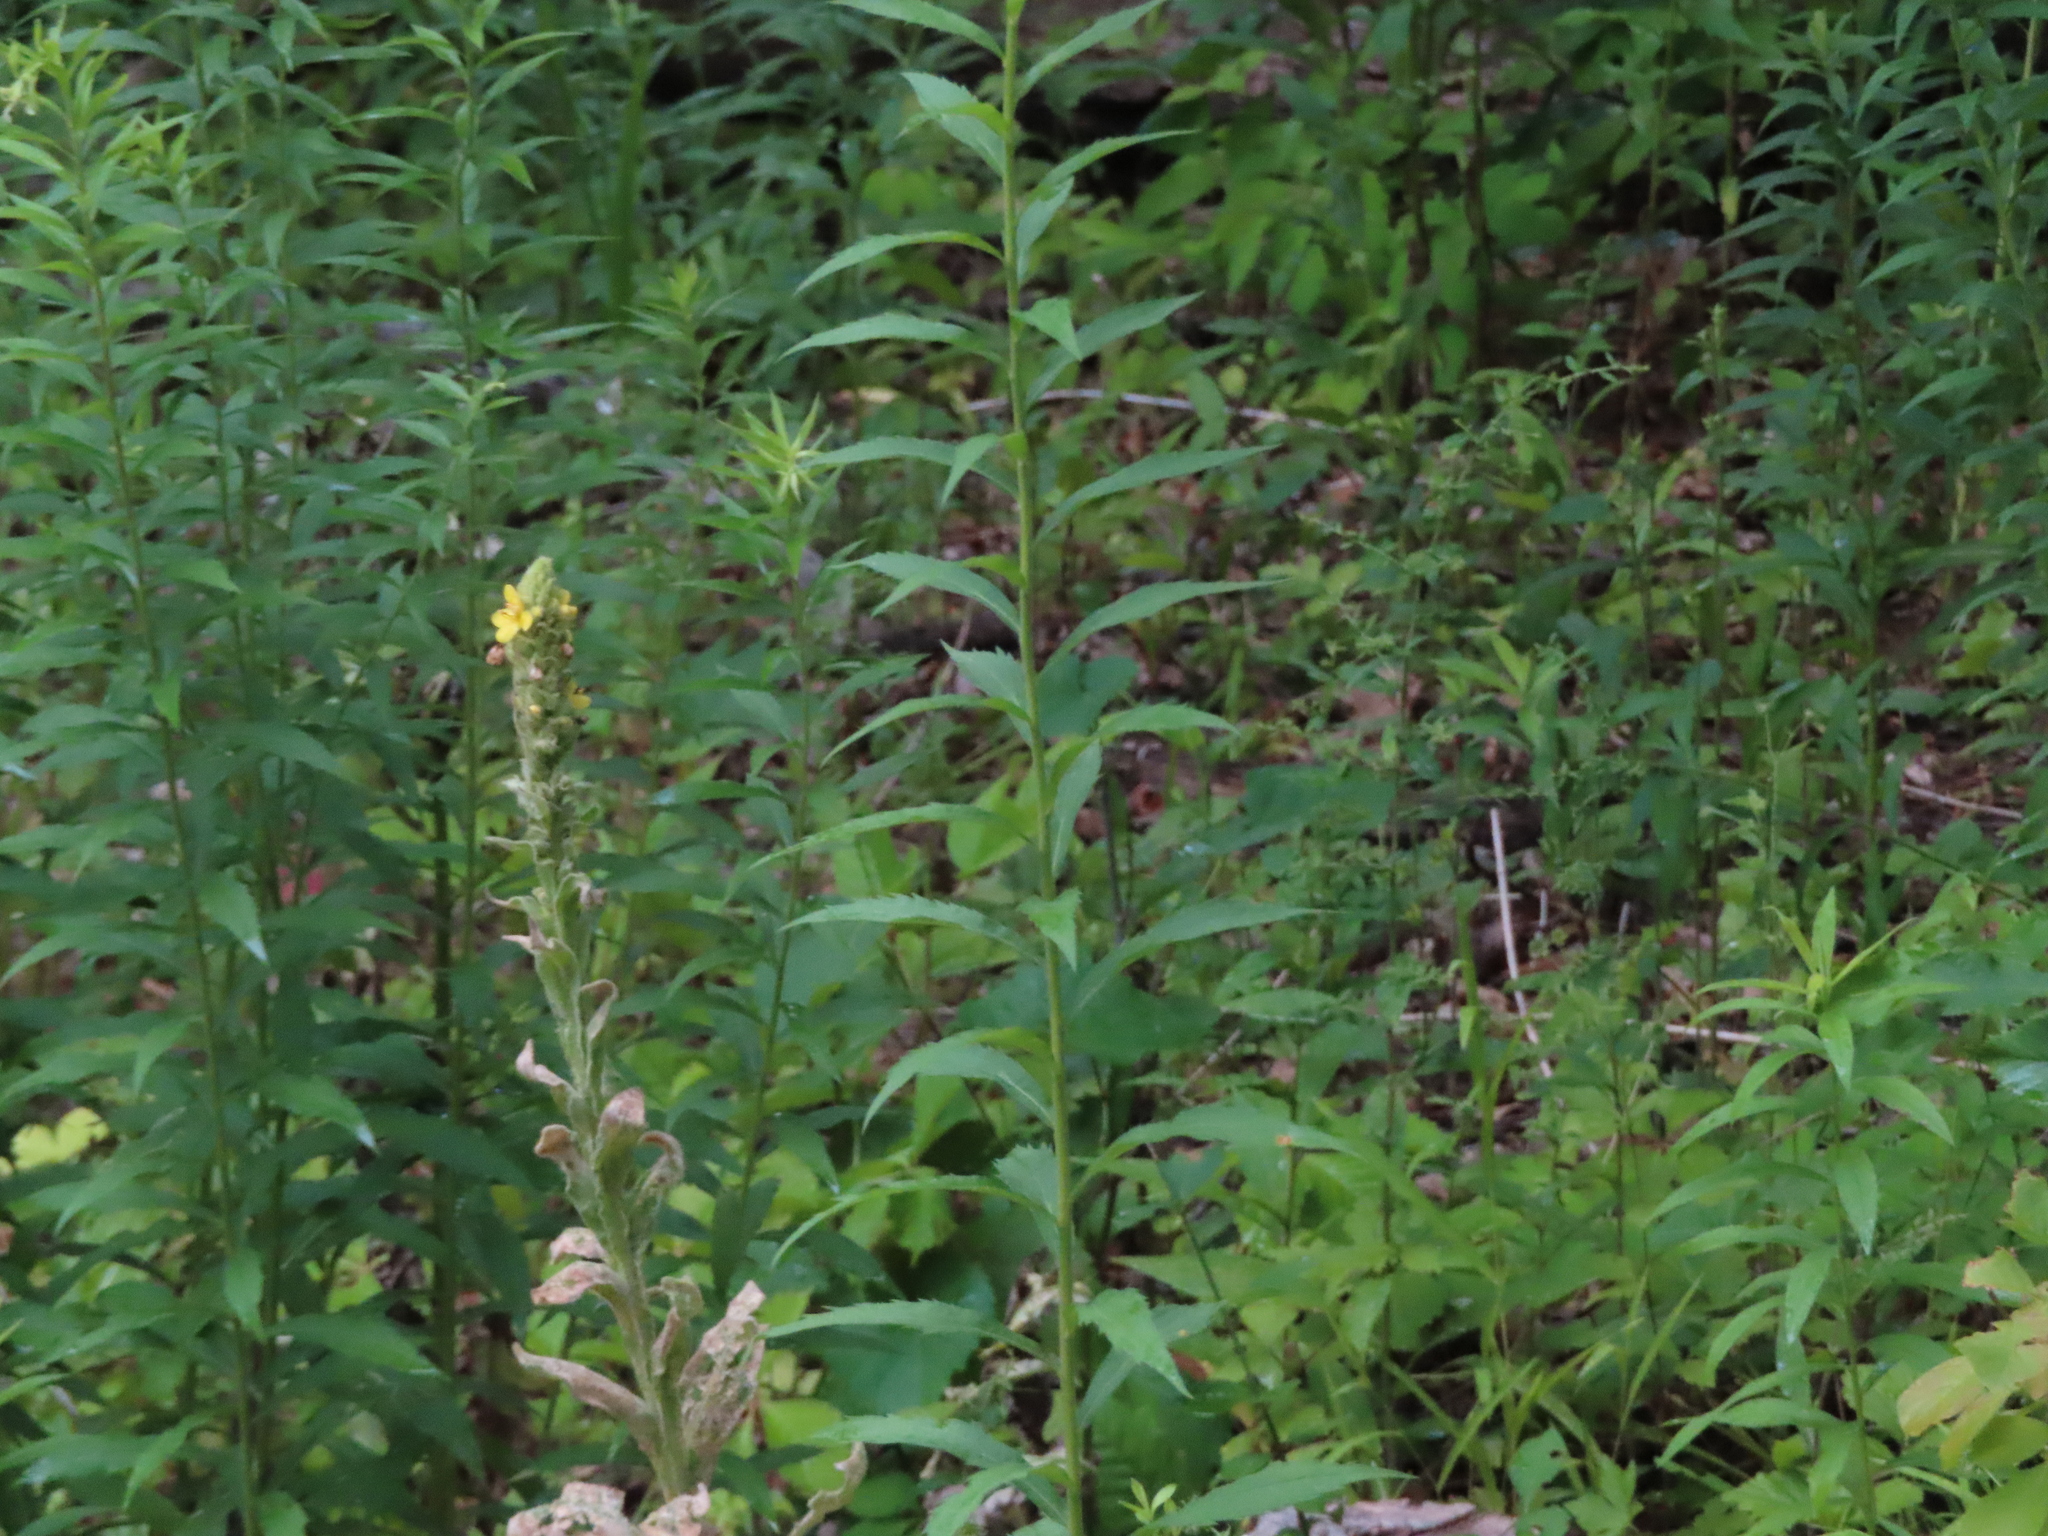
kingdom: Plantae
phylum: Tracheophyta
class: Magnoliopsida
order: Lamiales
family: Scrophulariaceae
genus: Verbascum
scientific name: Verbascum thapsus
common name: Common mullein
